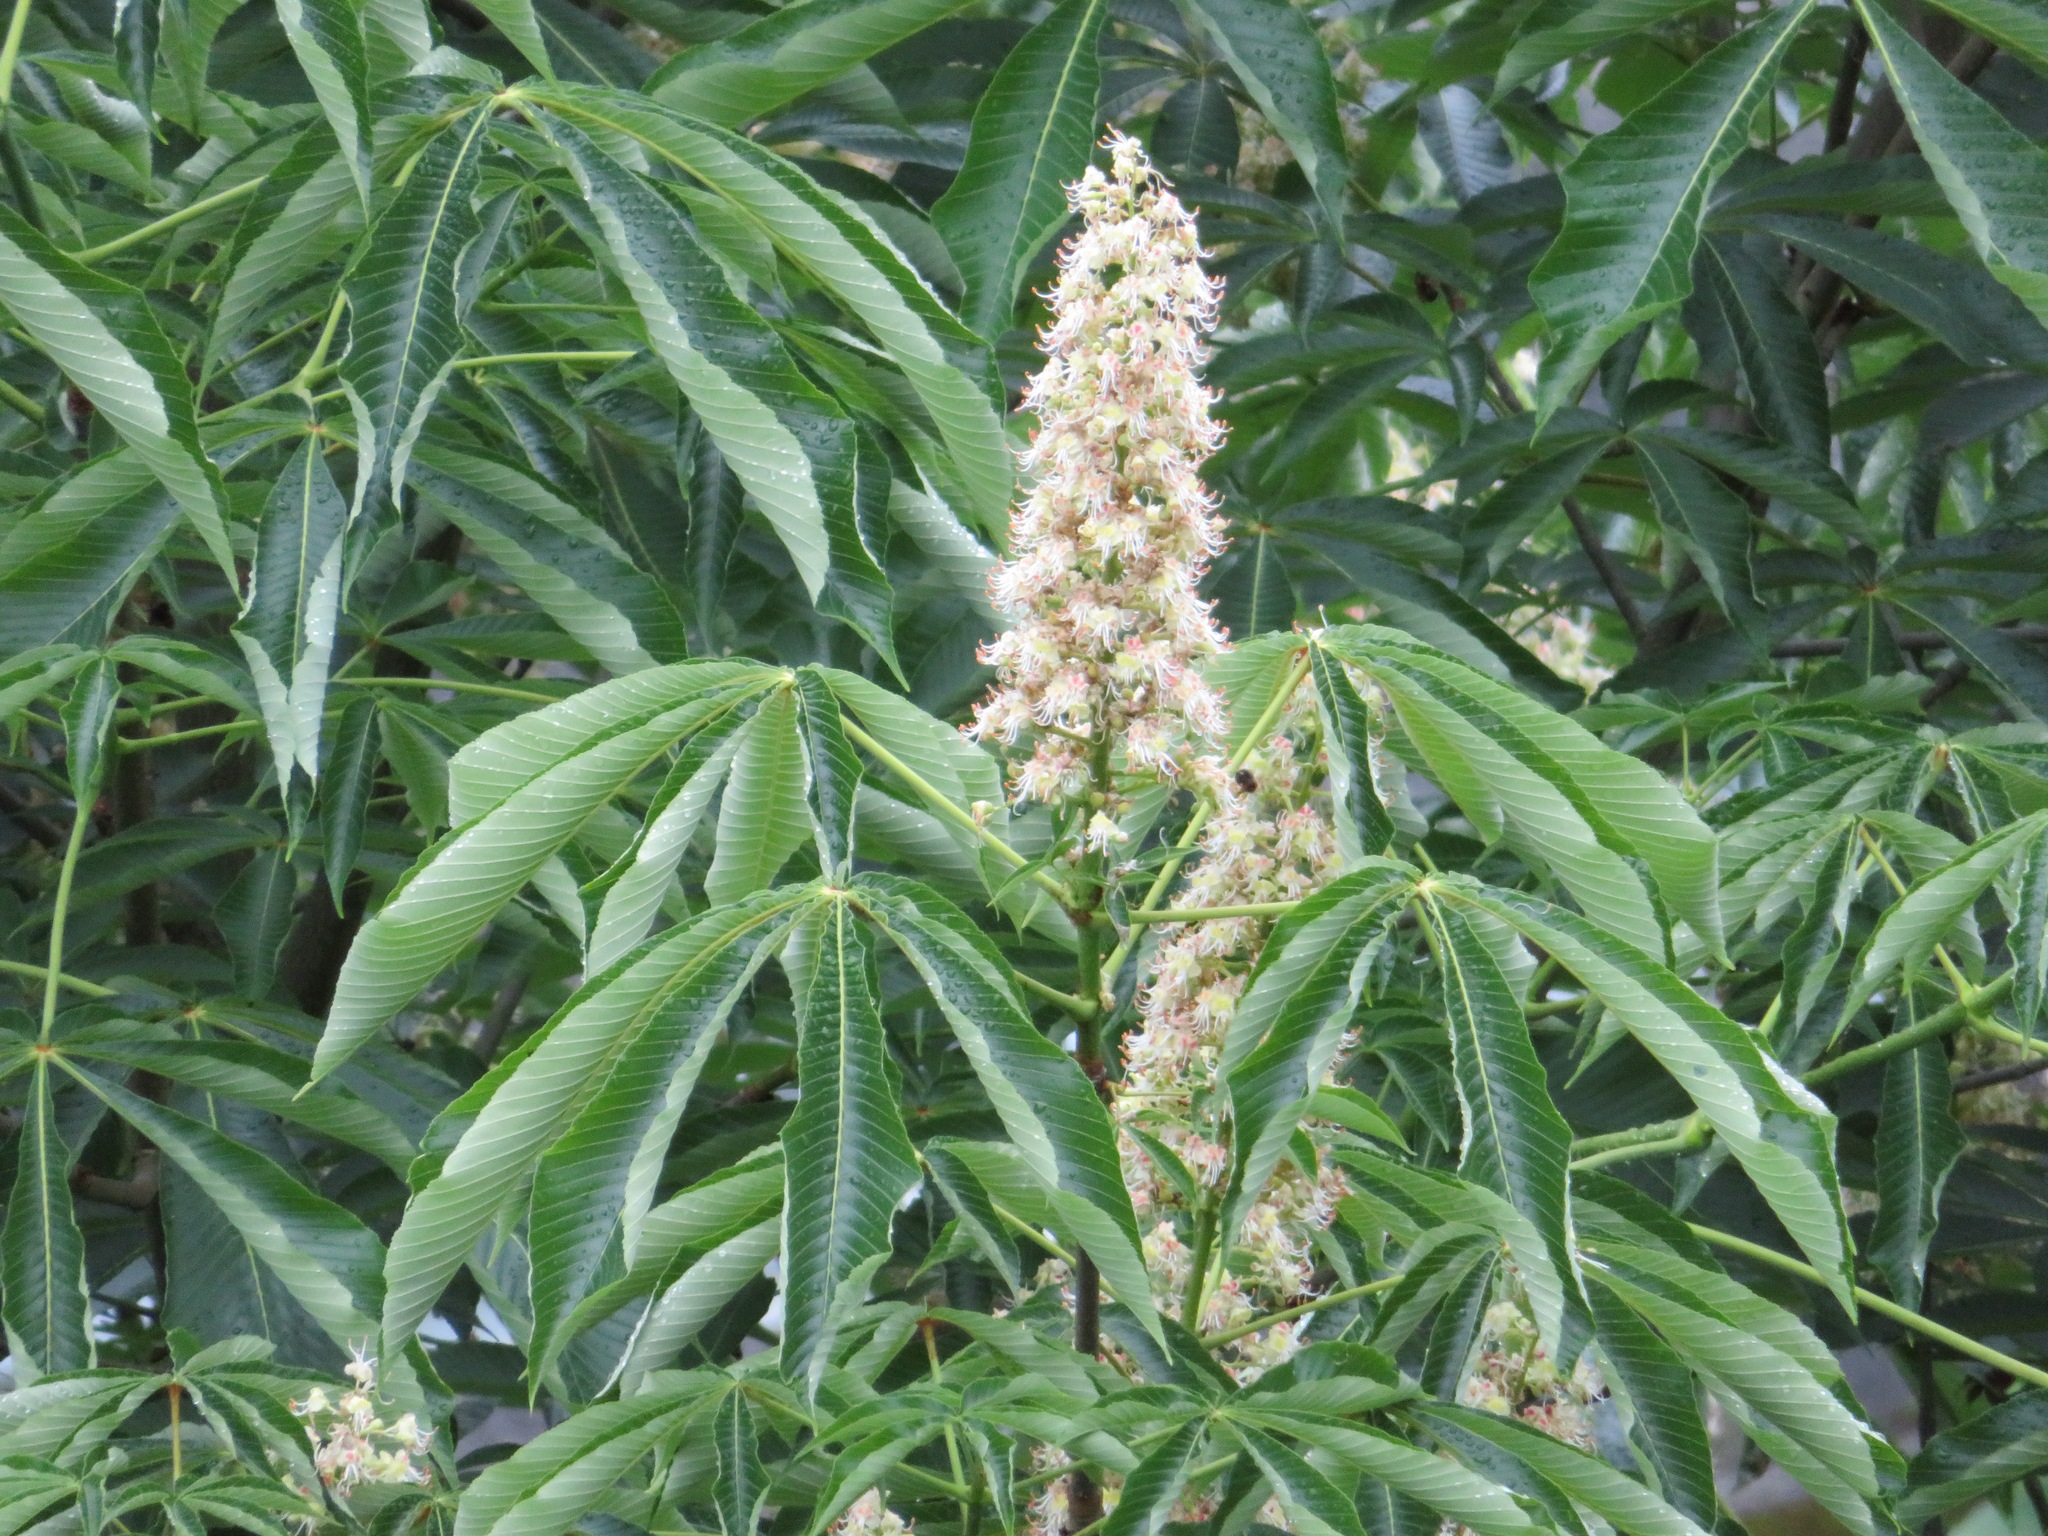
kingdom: Plantae
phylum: Tracheophyta
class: Magnoliopsida
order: Sapindales
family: Sapindaceae
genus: Aesculus
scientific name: Aesculus turbinata
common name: Japanese horse-chestnut
